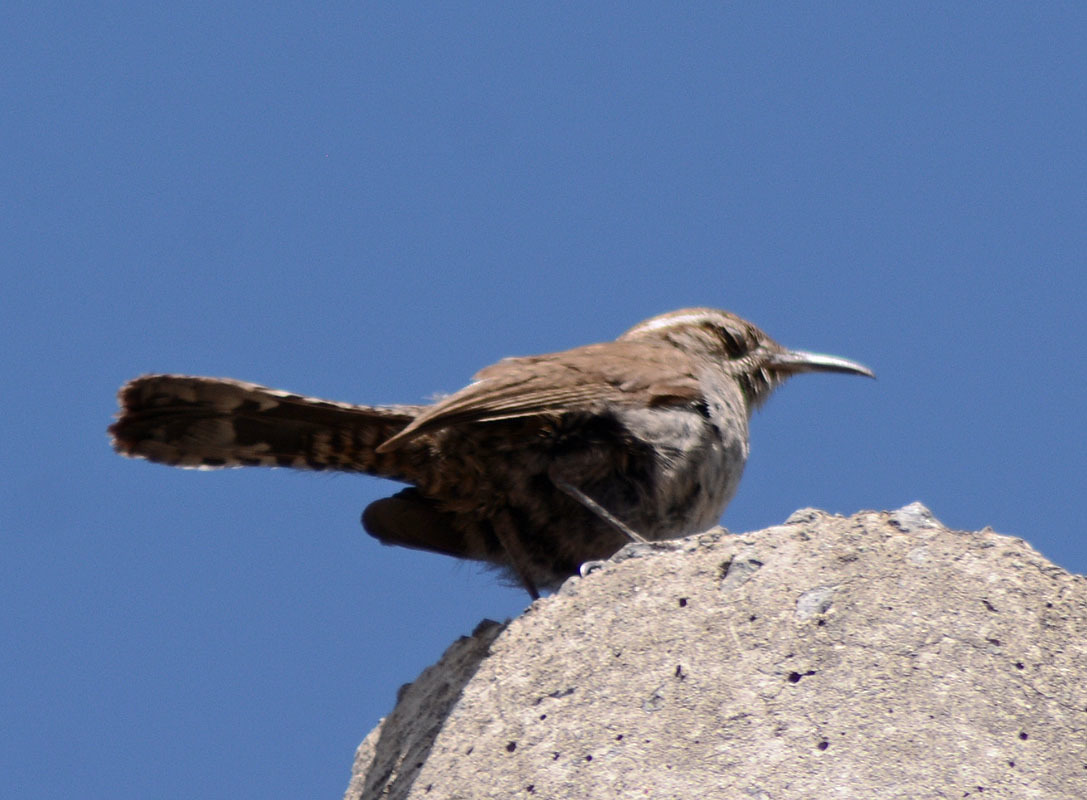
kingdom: Animalia
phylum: Chordata
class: Aves
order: Passeriformes
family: Troglodytidae
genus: Thryomanes
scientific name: Thryomanes bewickii
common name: Bewick's wren
